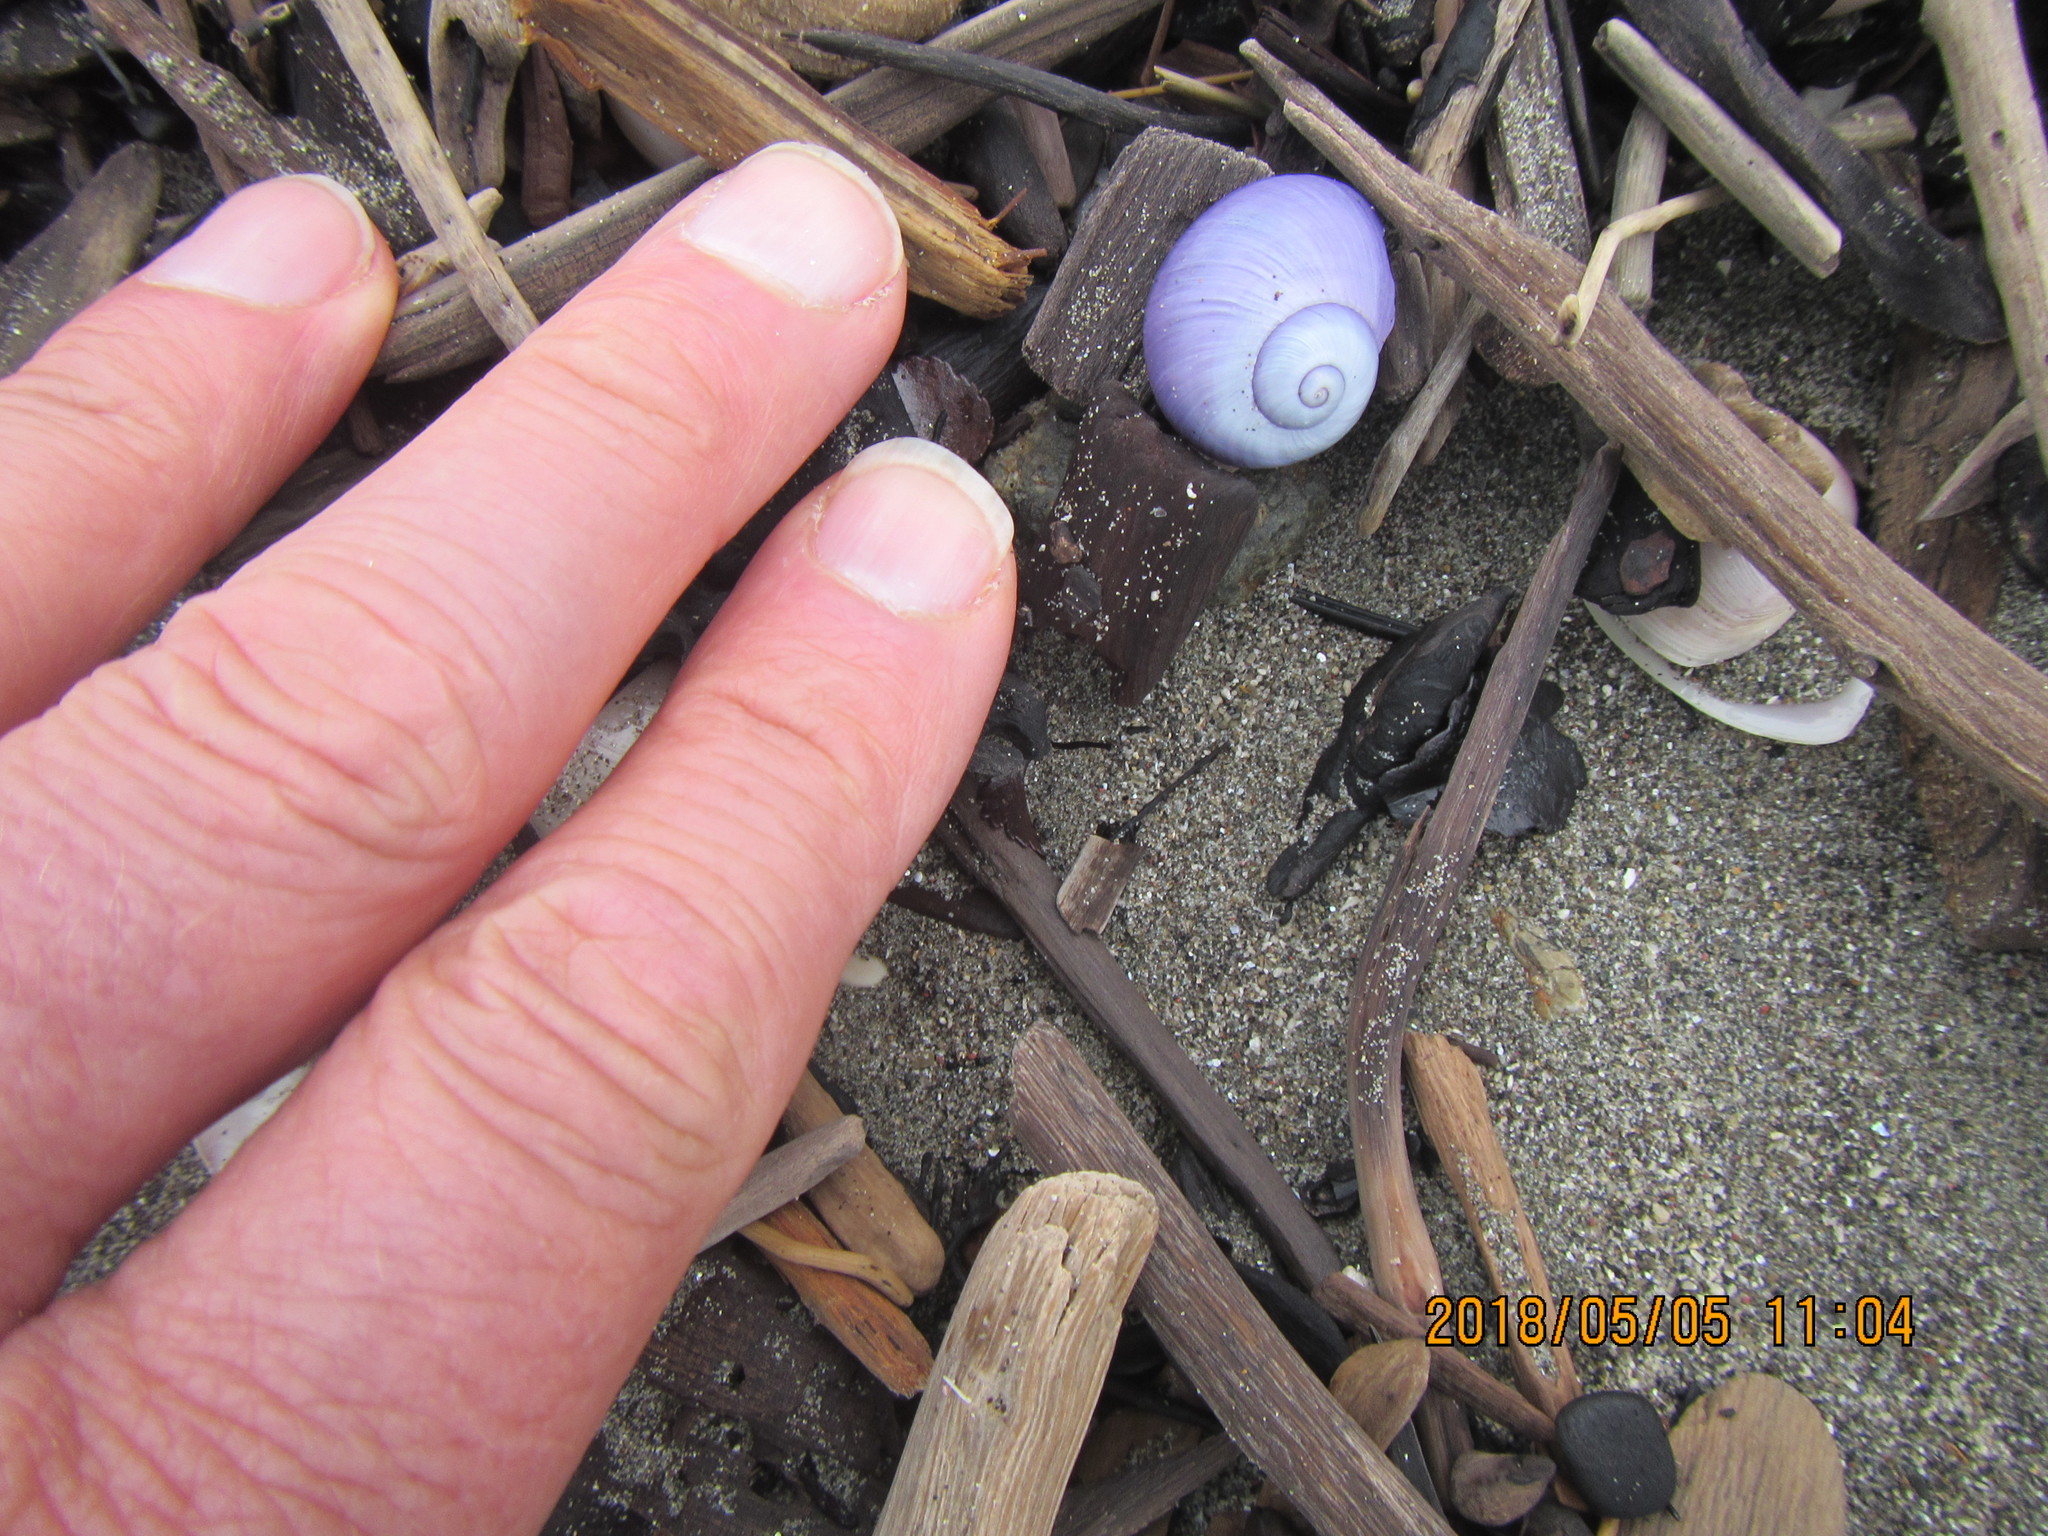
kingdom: Animalia
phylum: Mollusca
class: Gastropoda
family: Epitoniidae
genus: Janthina
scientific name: Janthina janthina
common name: Common janthina
